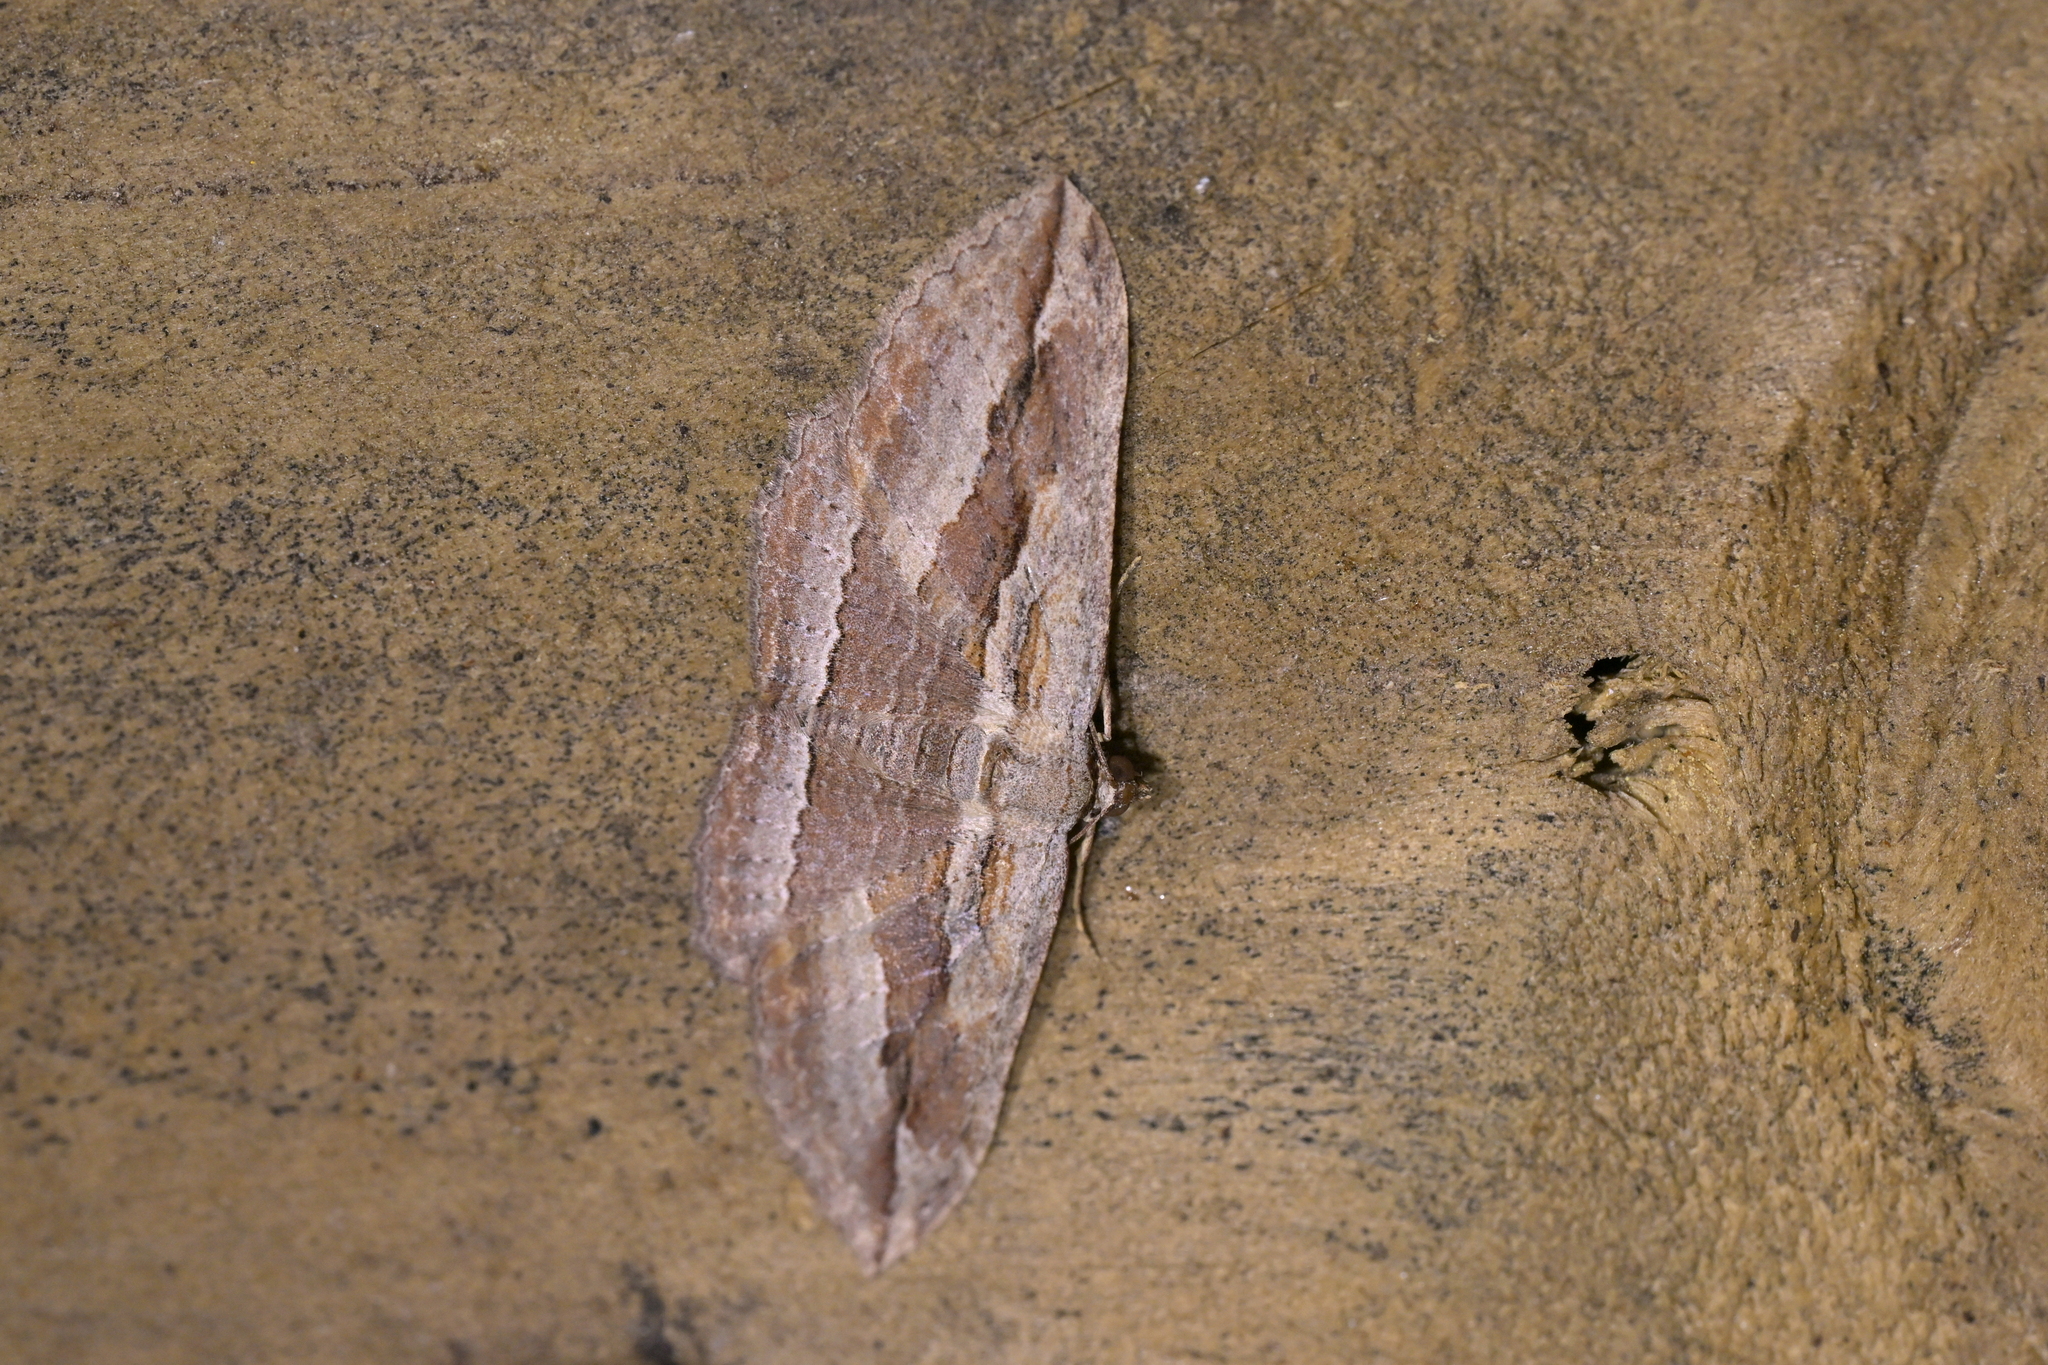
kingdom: Animalia
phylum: Arthropoda
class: Insecta
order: Lepidoptera
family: Geometridae
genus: Austrocidaria
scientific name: Austrocidaria gobiata
